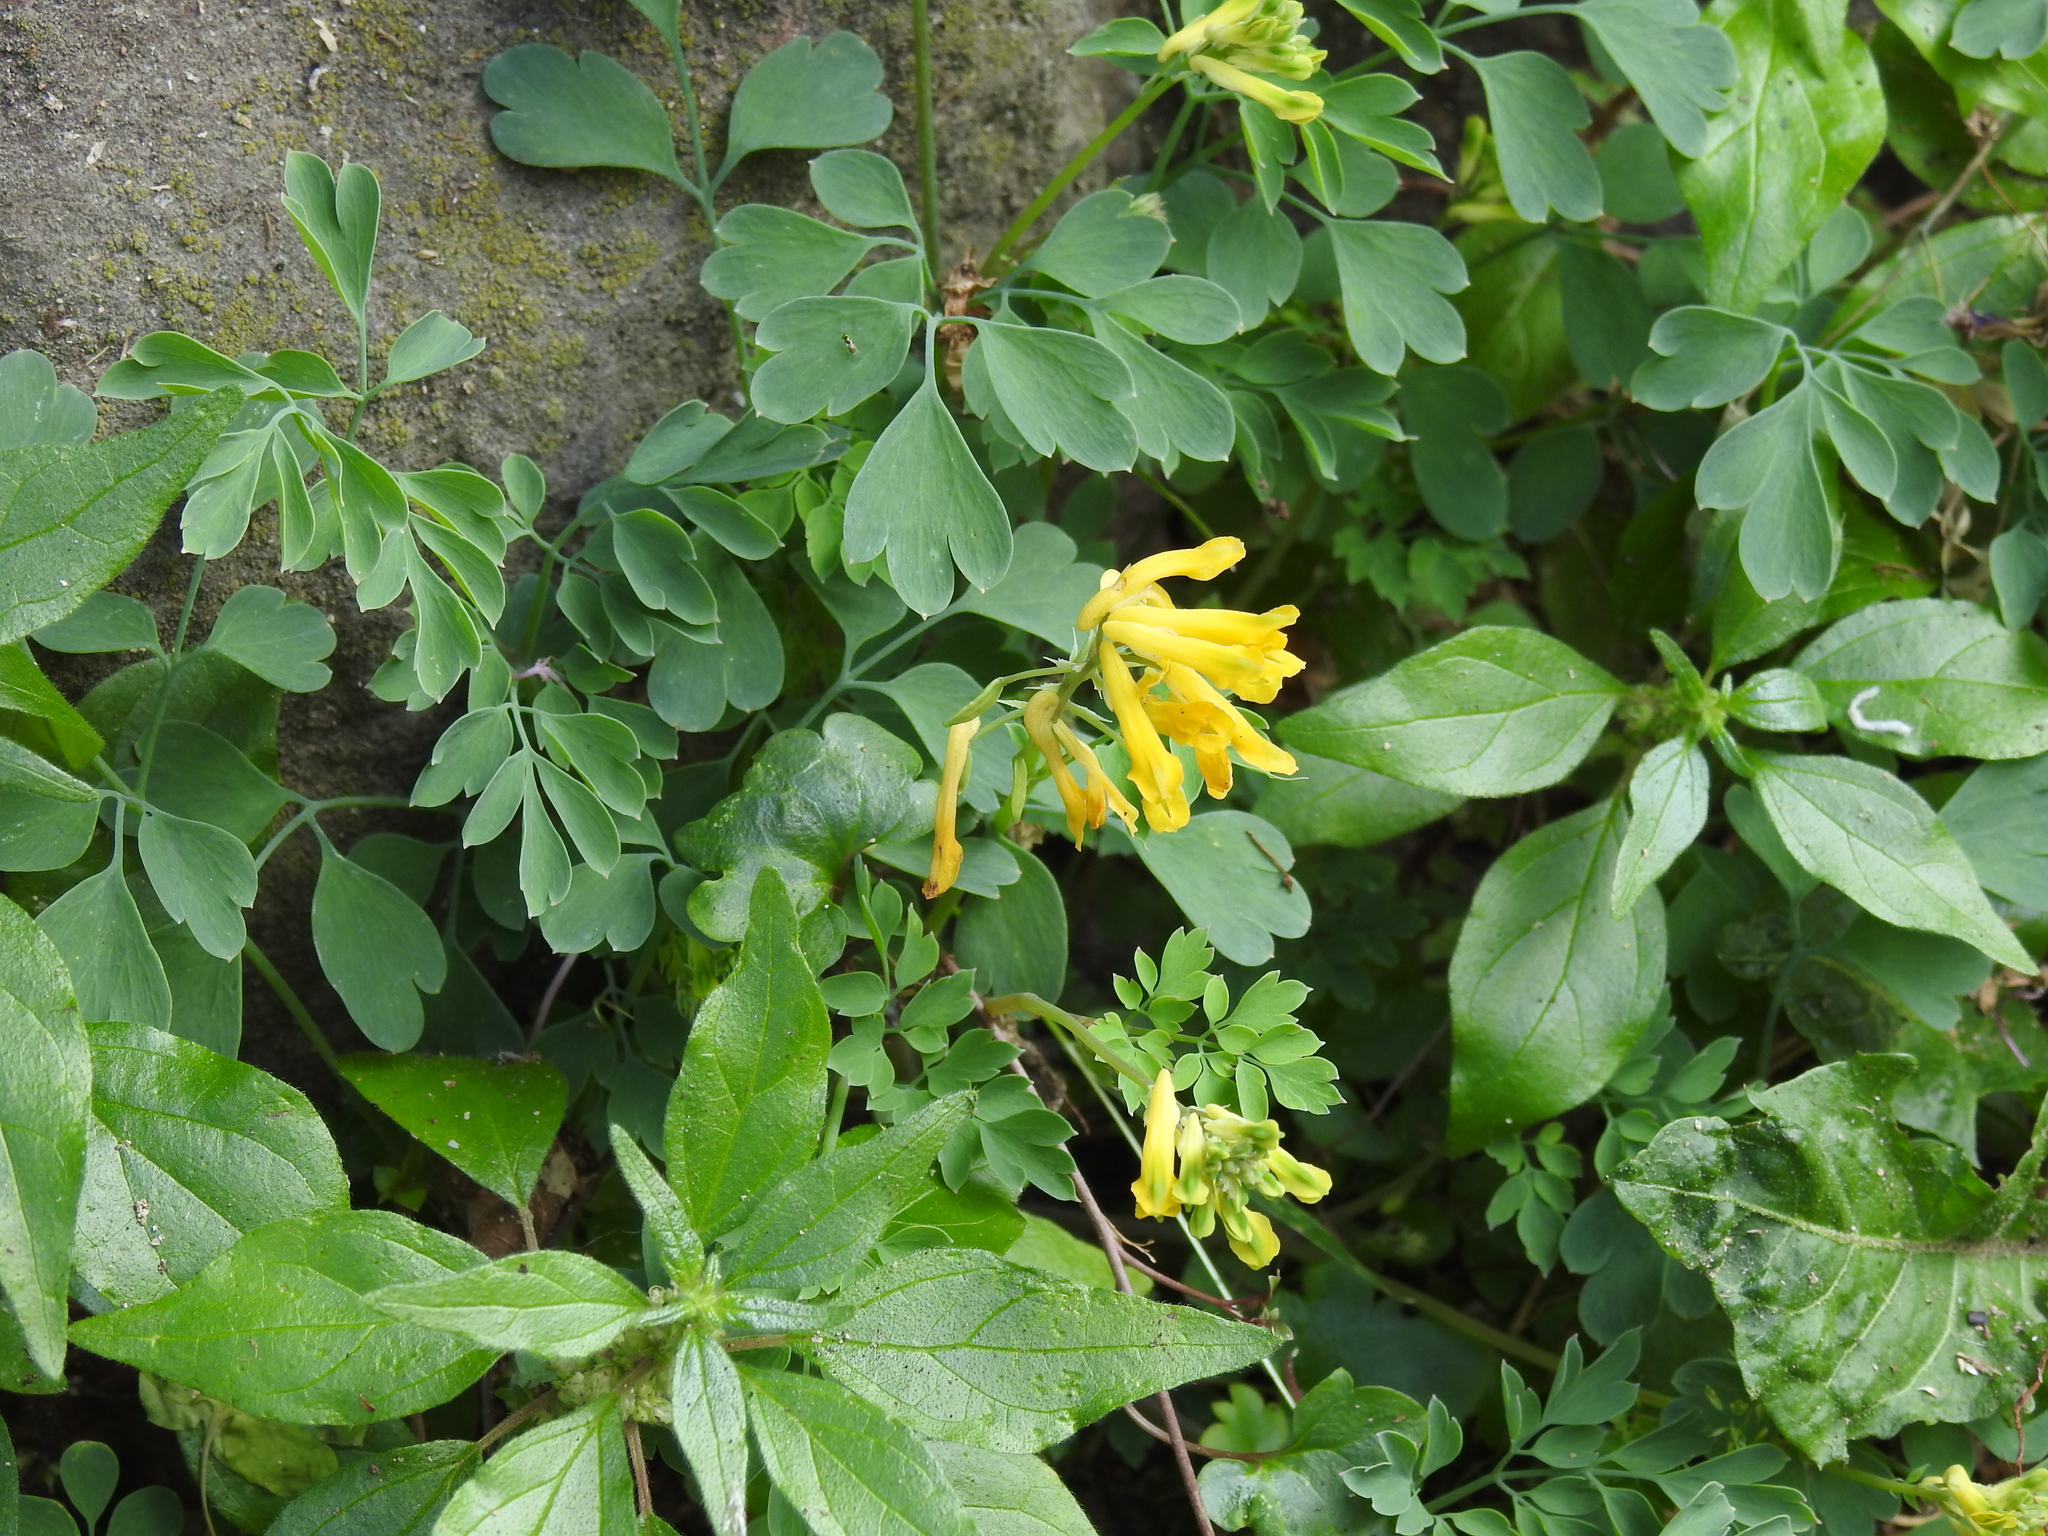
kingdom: Plantae
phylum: Tracheophyta
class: Magnoliopsida
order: Ranunculales
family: Papaveraceae
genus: Pseudofumaria
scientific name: Pseudofumaria lutea
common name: Yellow corydalis
